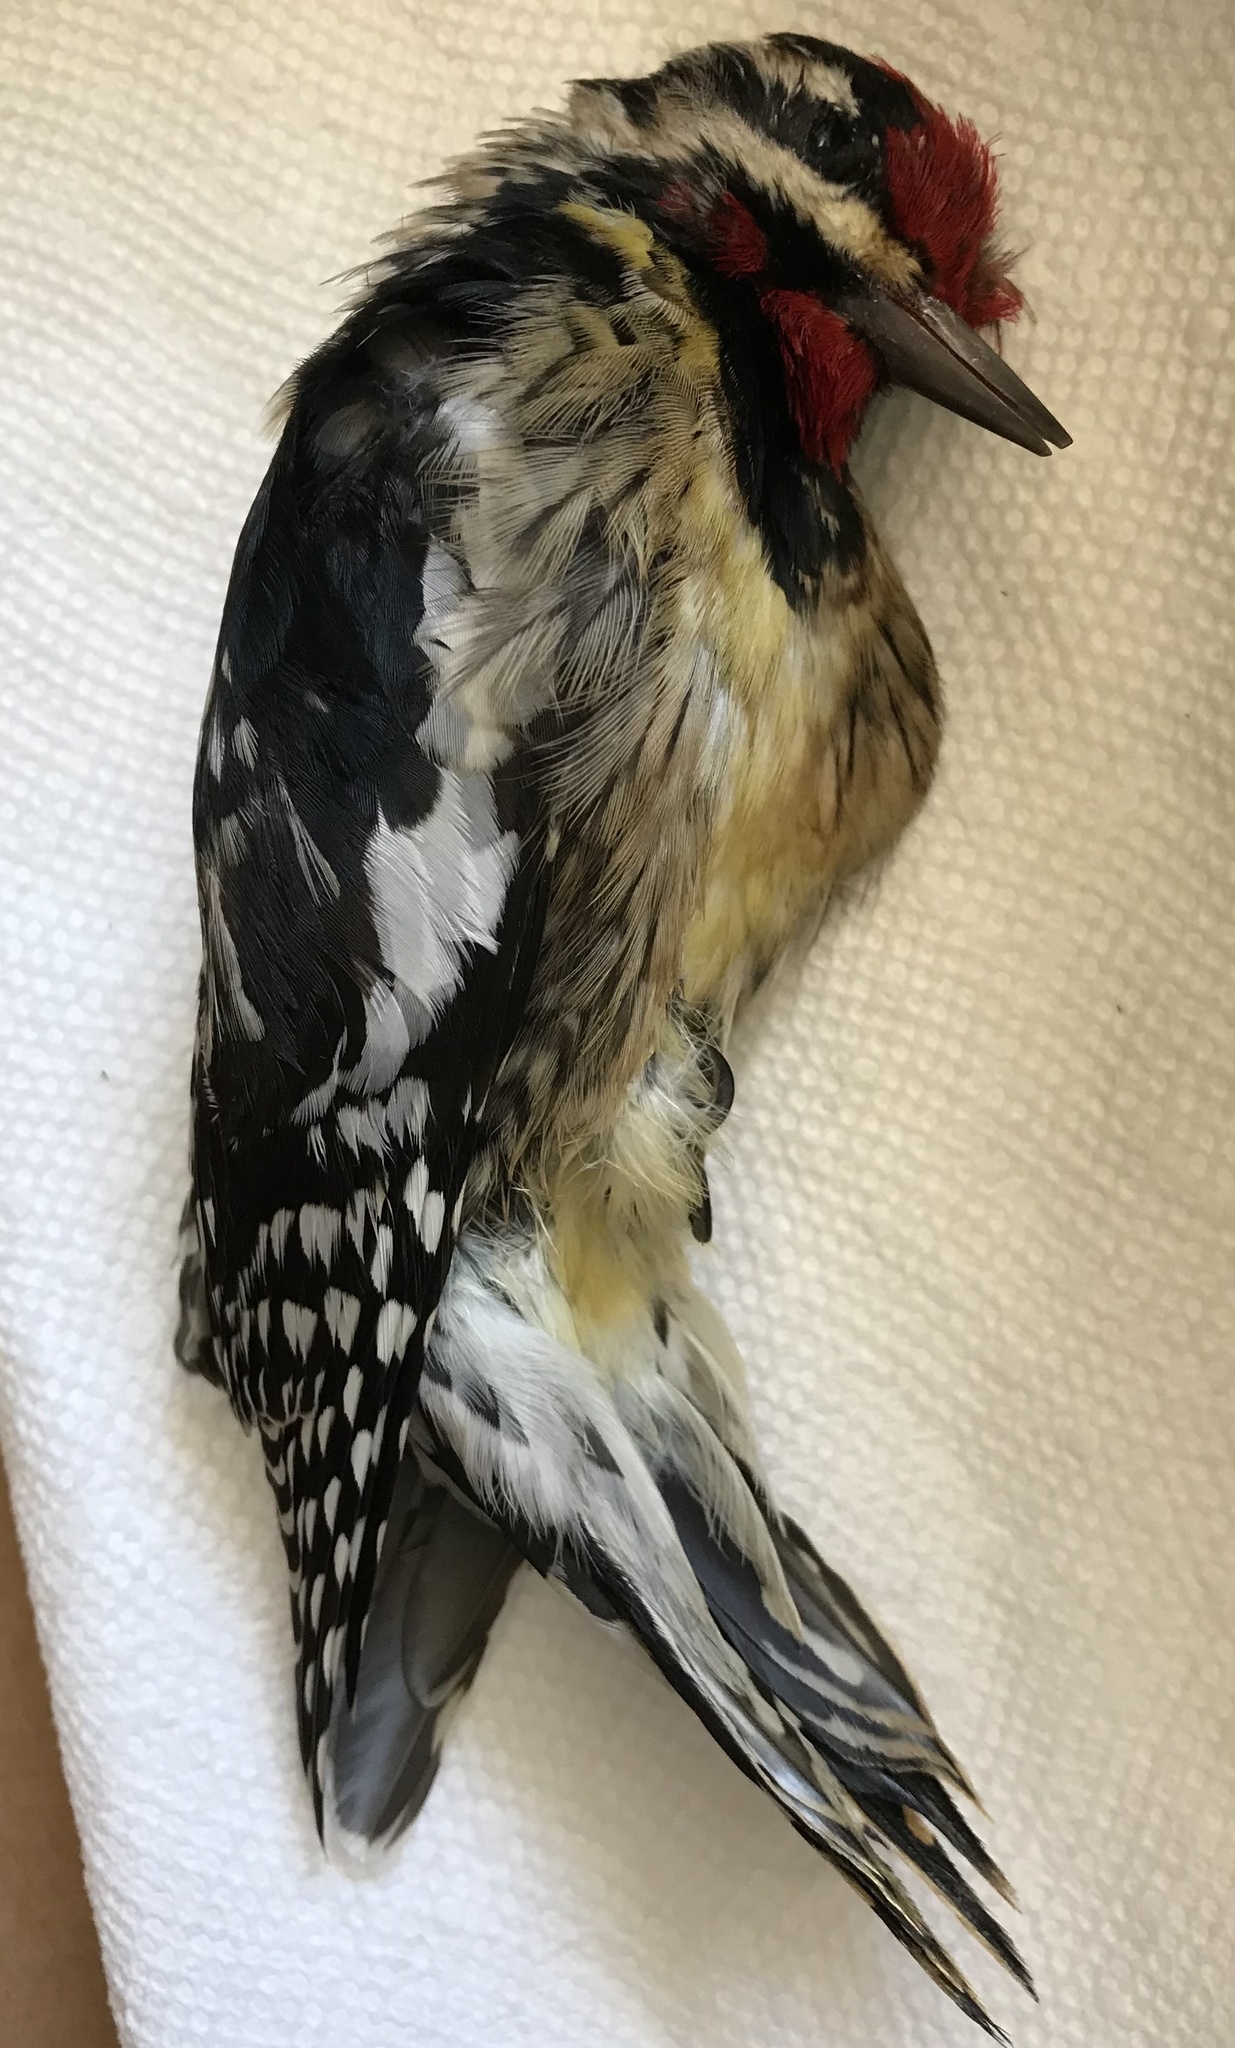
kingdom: Animalia
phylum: Chordata
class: Aves
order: Piciformes
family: Picidae
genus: Sphyrapicus
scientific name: Sphyrapicus varius
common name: Yellow-bellied sapsucker
